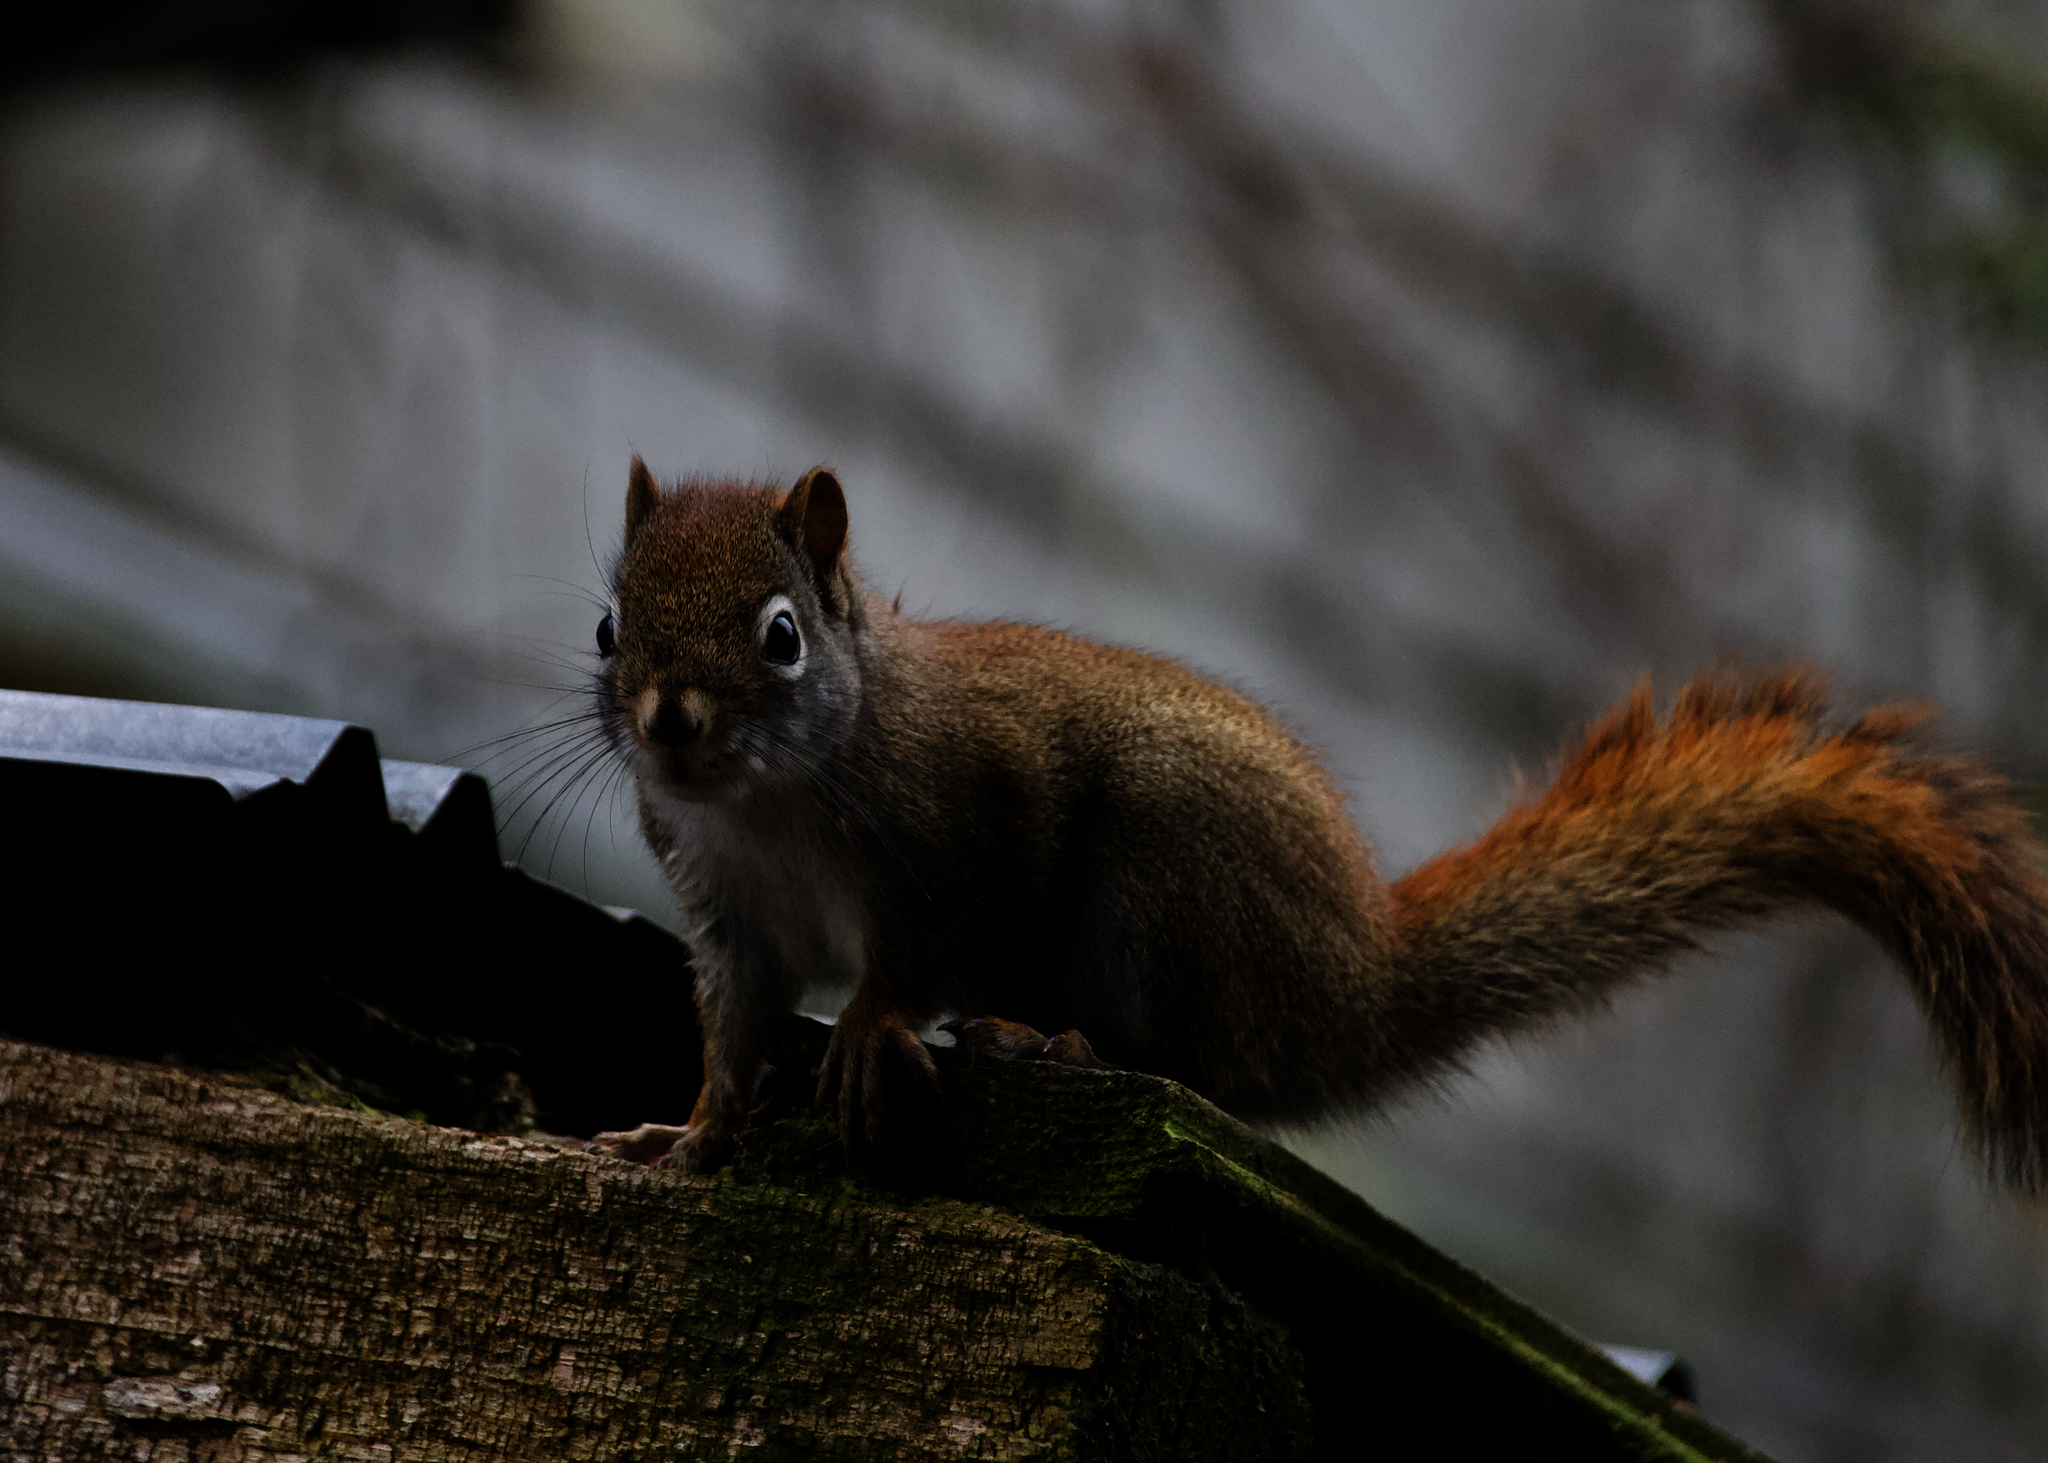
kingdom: Animalia
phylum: Chordata
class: Mammalia
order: Rodentia
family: Sciuridae
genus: Tamiasciurus
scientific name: Tamiasciurus hudsonicus
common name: Red squirrel
